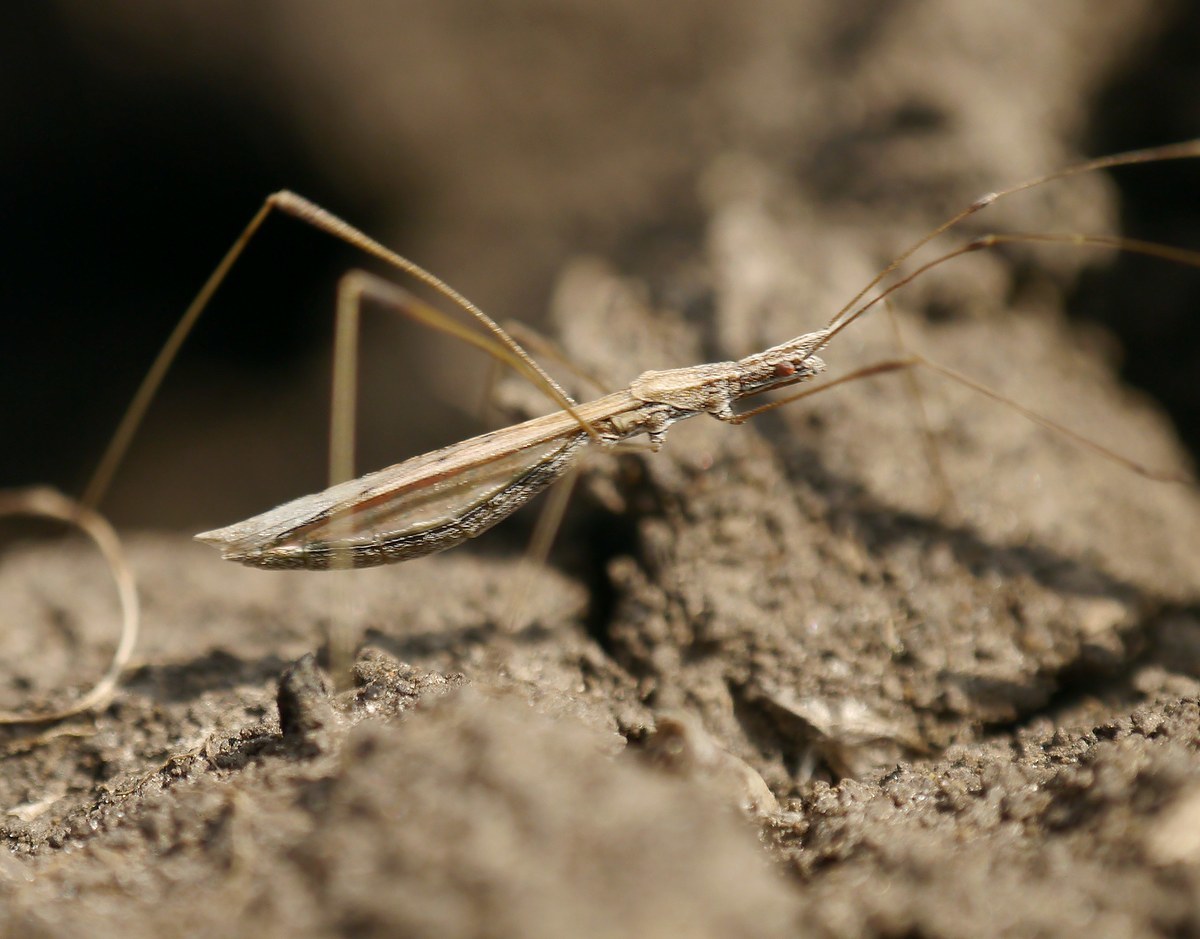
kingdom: Animalia
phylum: Arthropoda
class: Insecta
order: Hemiptera
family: Berytidae
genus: Neides
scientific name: Neides tipularius
